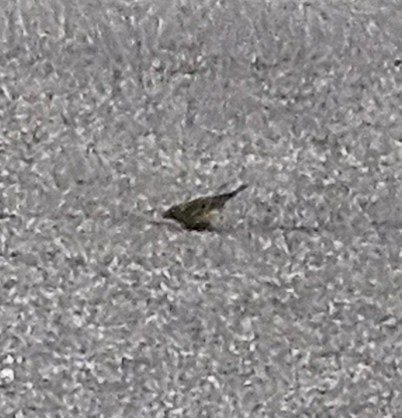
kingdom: Animalia
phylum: Chordata
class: Aves
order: Passeriformes
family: Parulidae
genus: Setophaga
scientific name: Setophaga pinus
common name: Pine warbler
